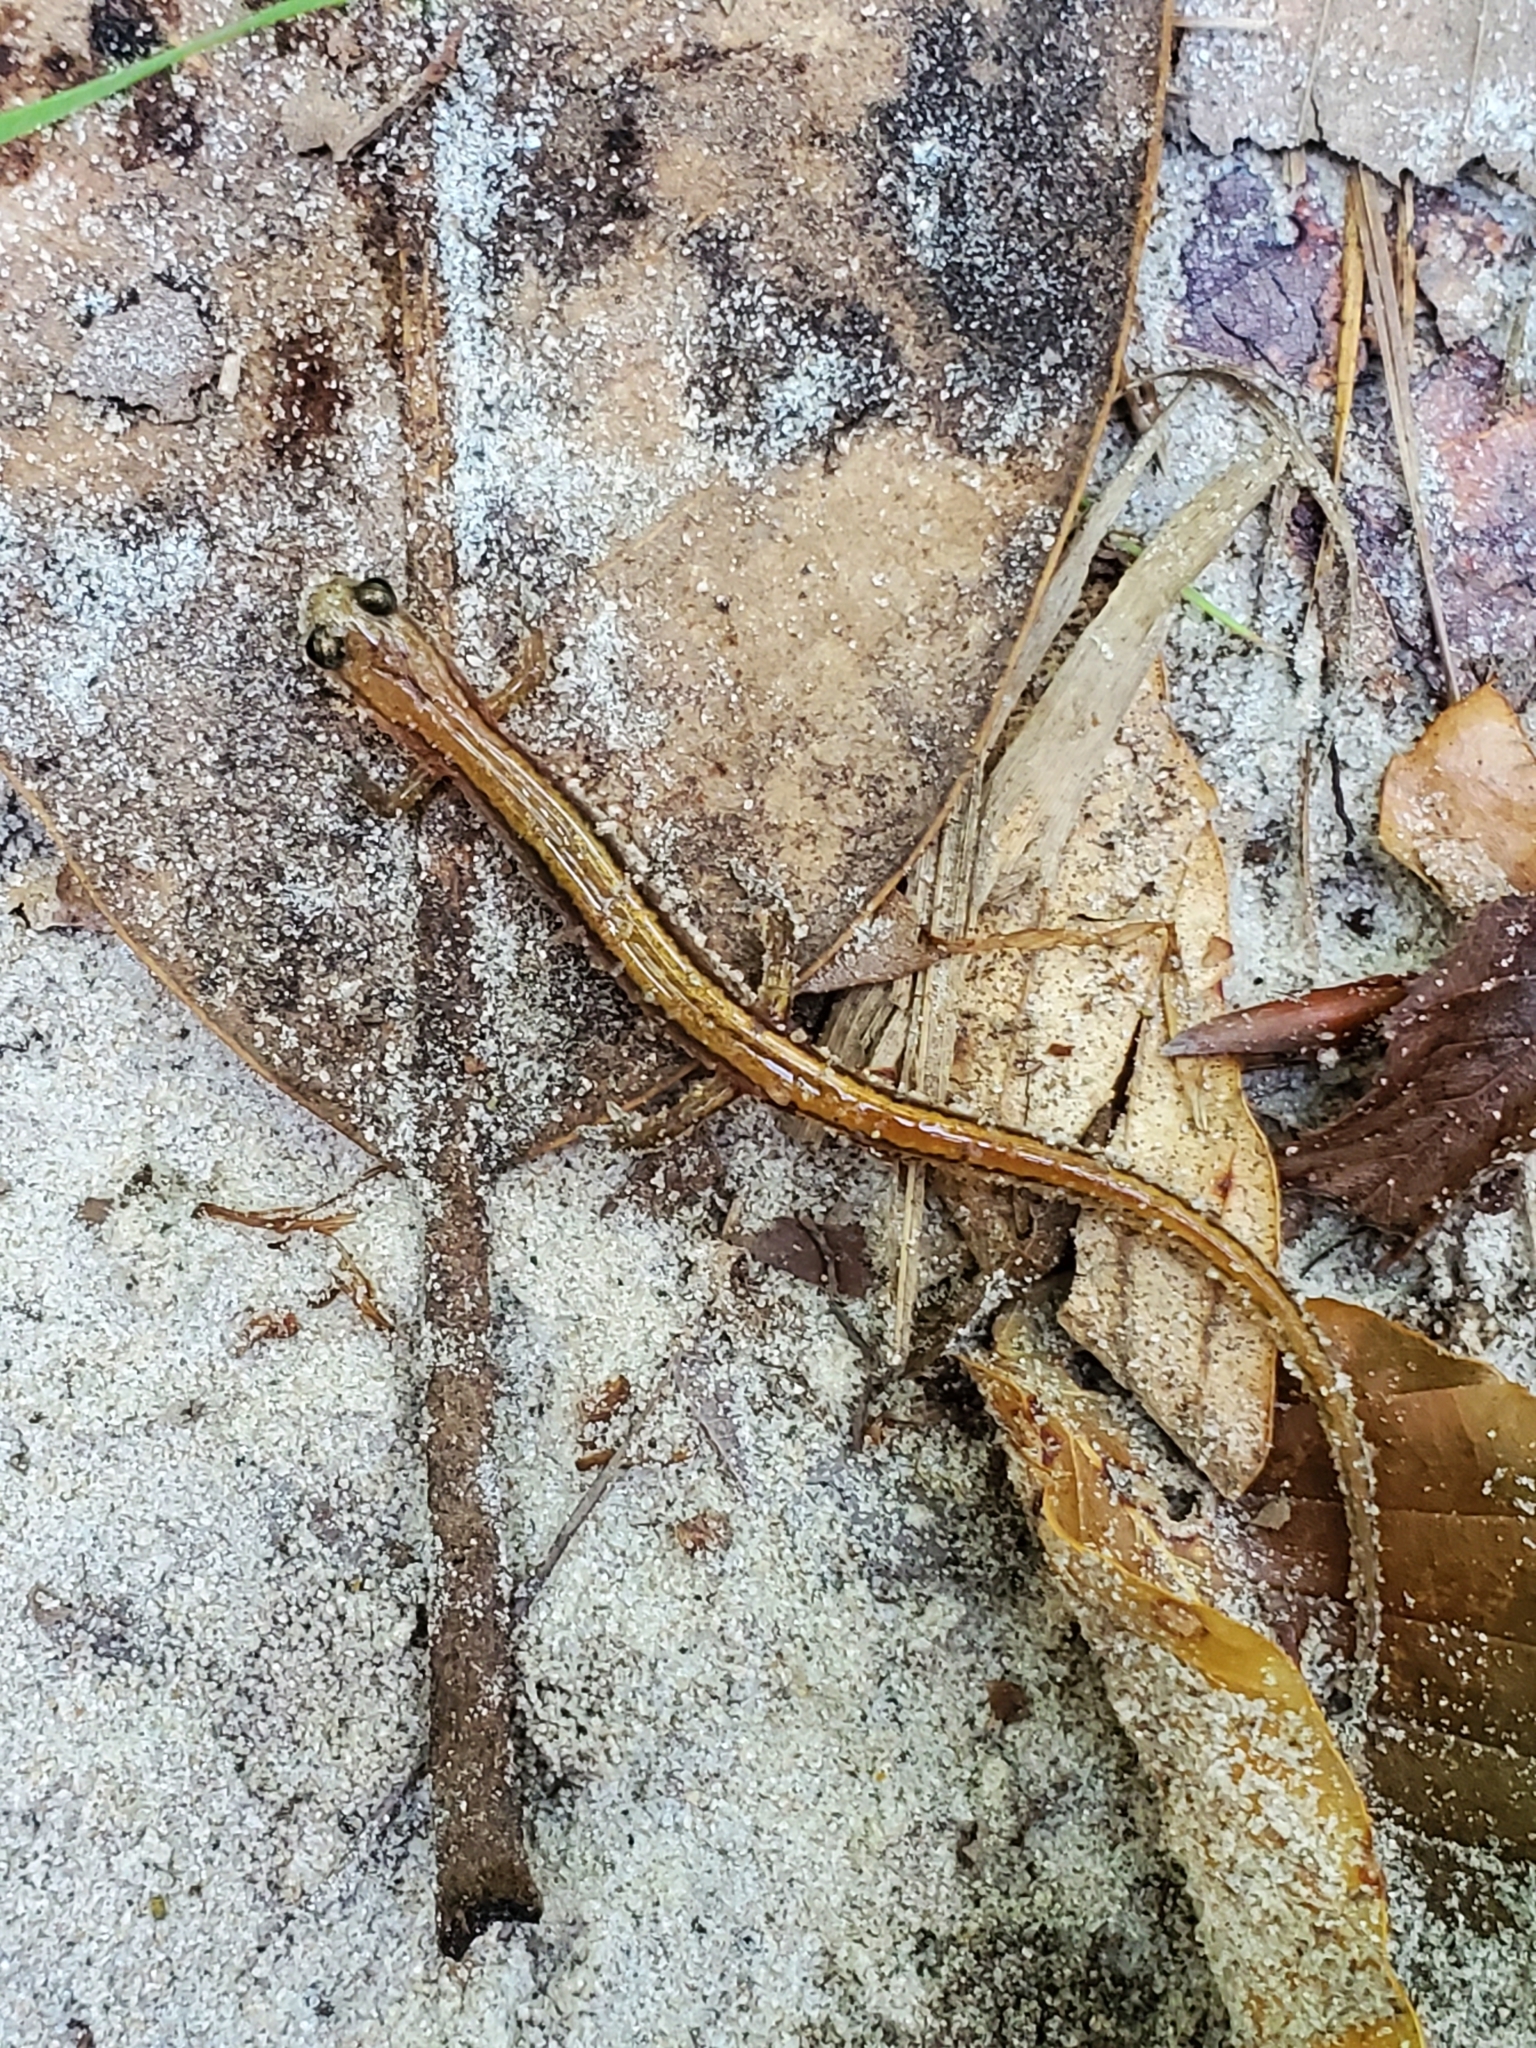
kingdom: Animalia
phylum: Chordata
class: Amphibia
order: Caudata
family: Plethodontidae
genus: Eurycea
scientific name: Eurycea paludicola
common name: Western dwarf salamander
